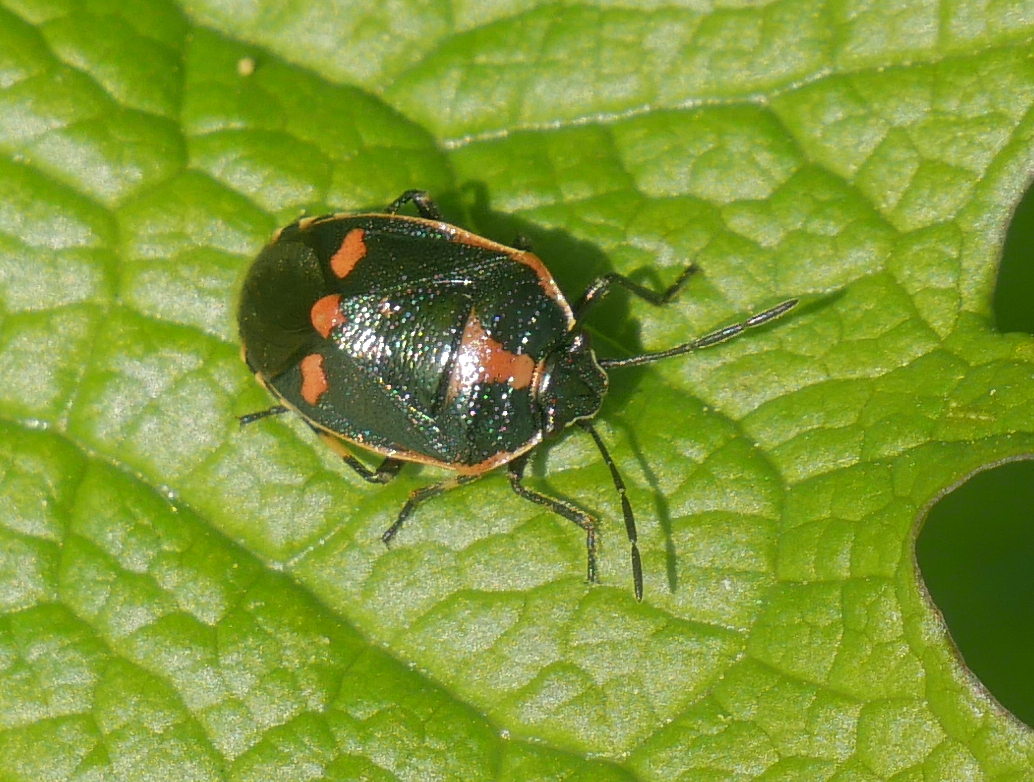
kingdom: Animalia
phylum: Arthropoda
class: Insecta
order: Hemiptera
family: Pentatomidae
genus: Eurydema
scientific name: Eurydema oleracea
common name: Cabbage bug
